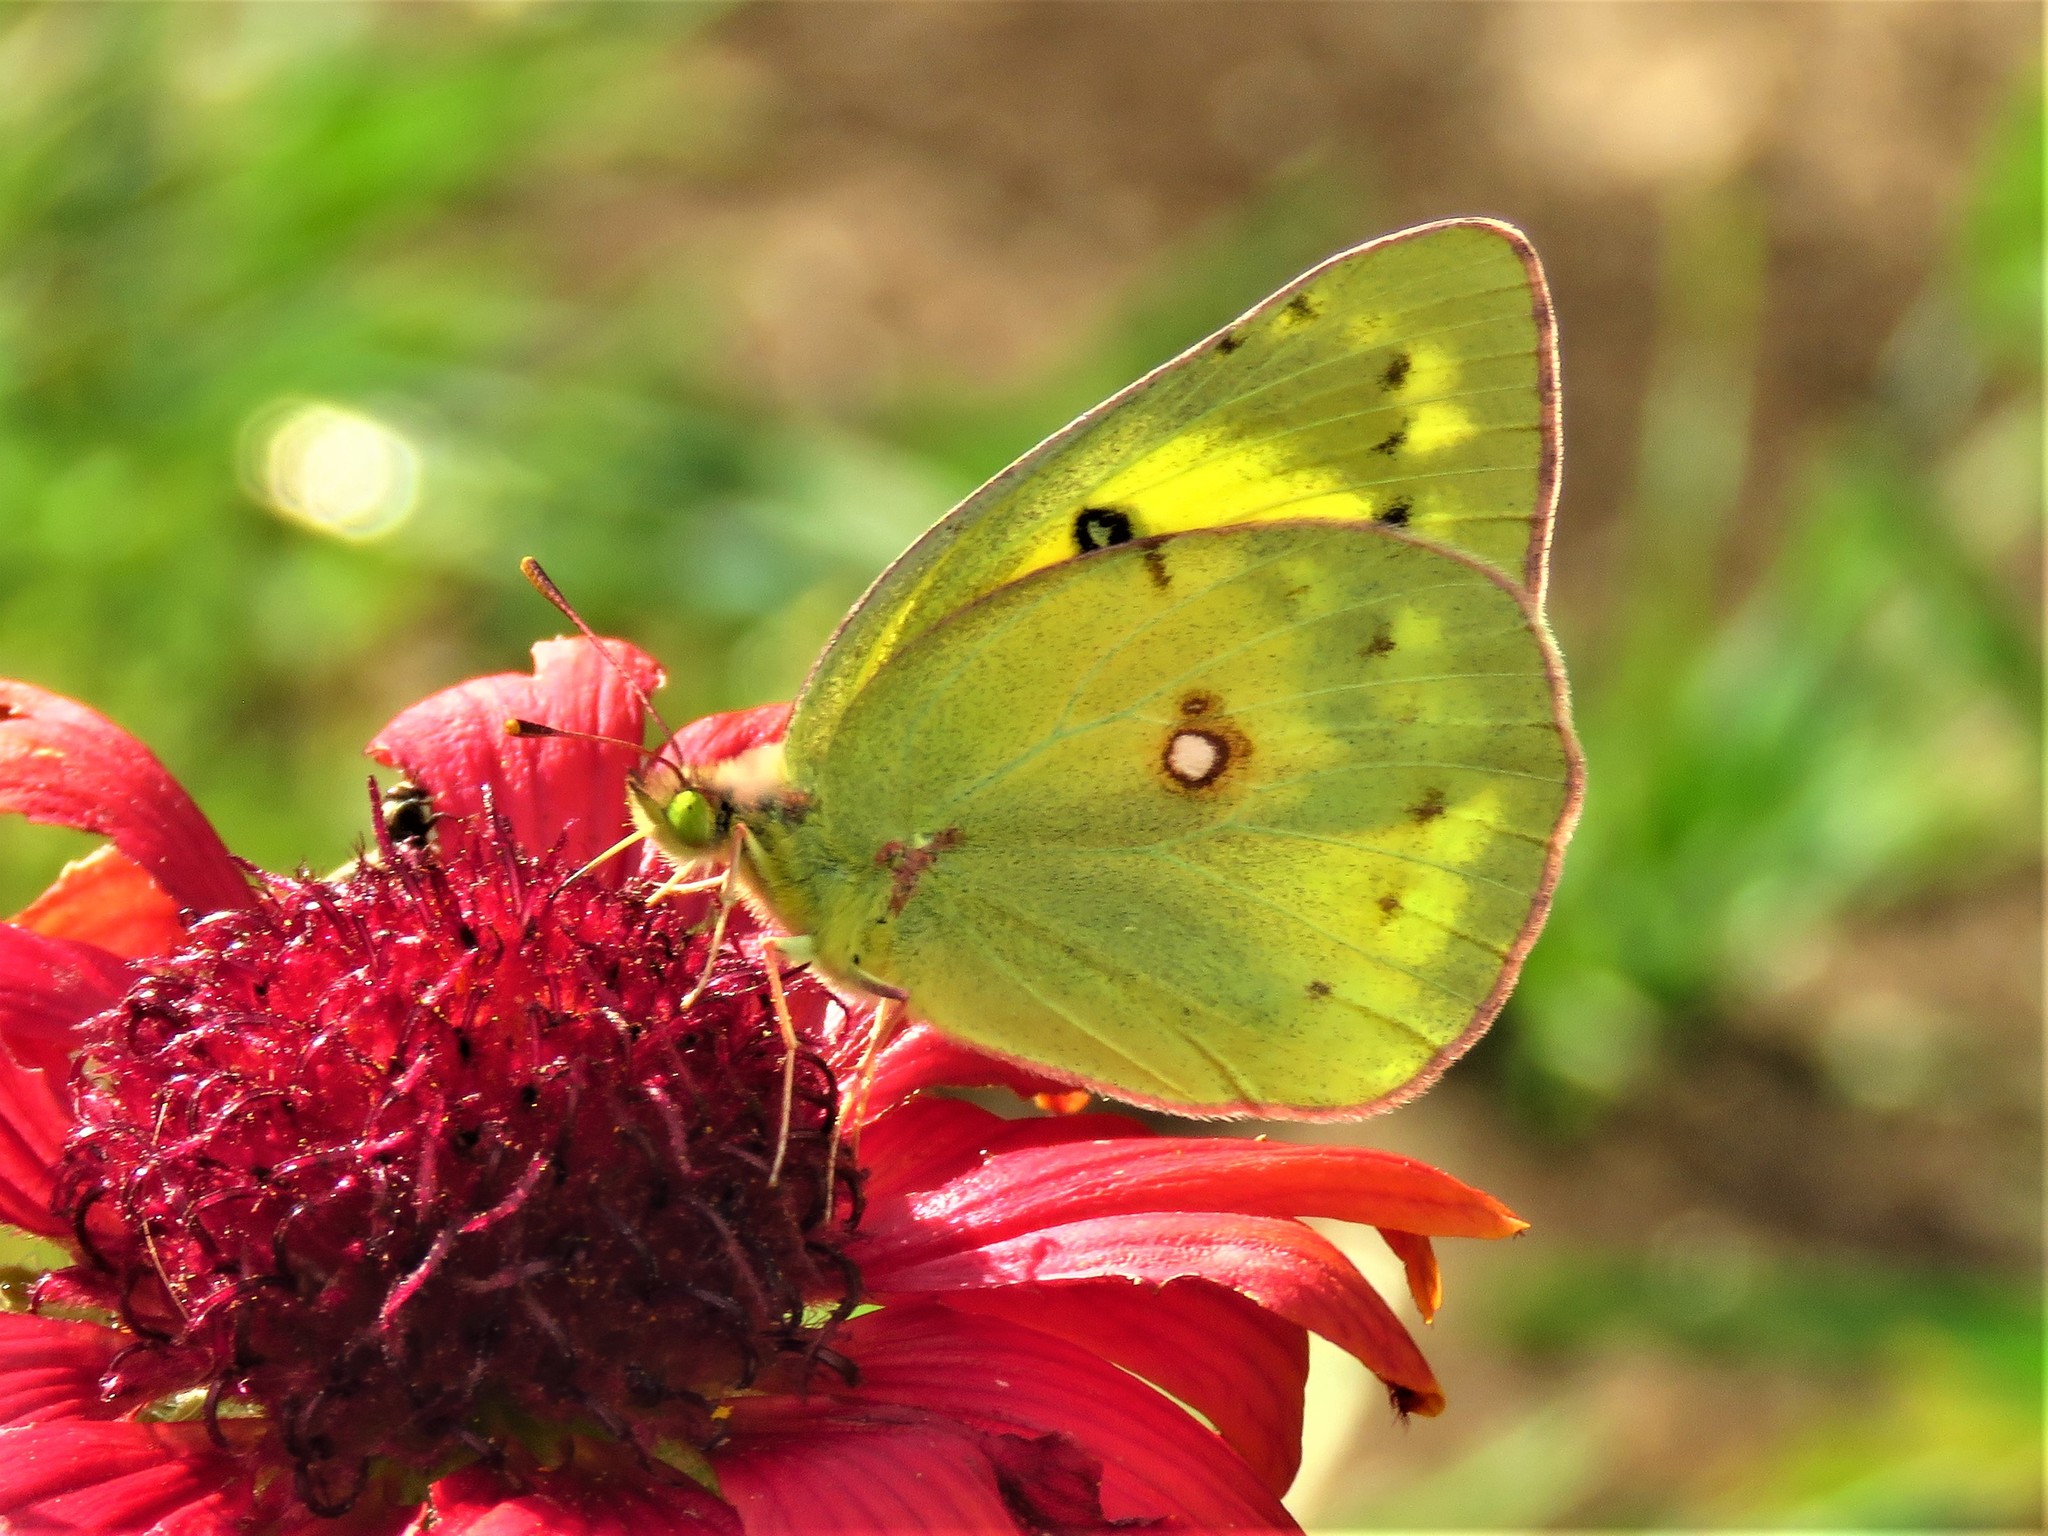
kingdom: Animalia
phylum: Arthropoda
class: Insecta
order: Lepidoptera
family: Pieridae
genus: Colias
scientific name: Colias eurytheme
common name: Alfalfa butterfly
